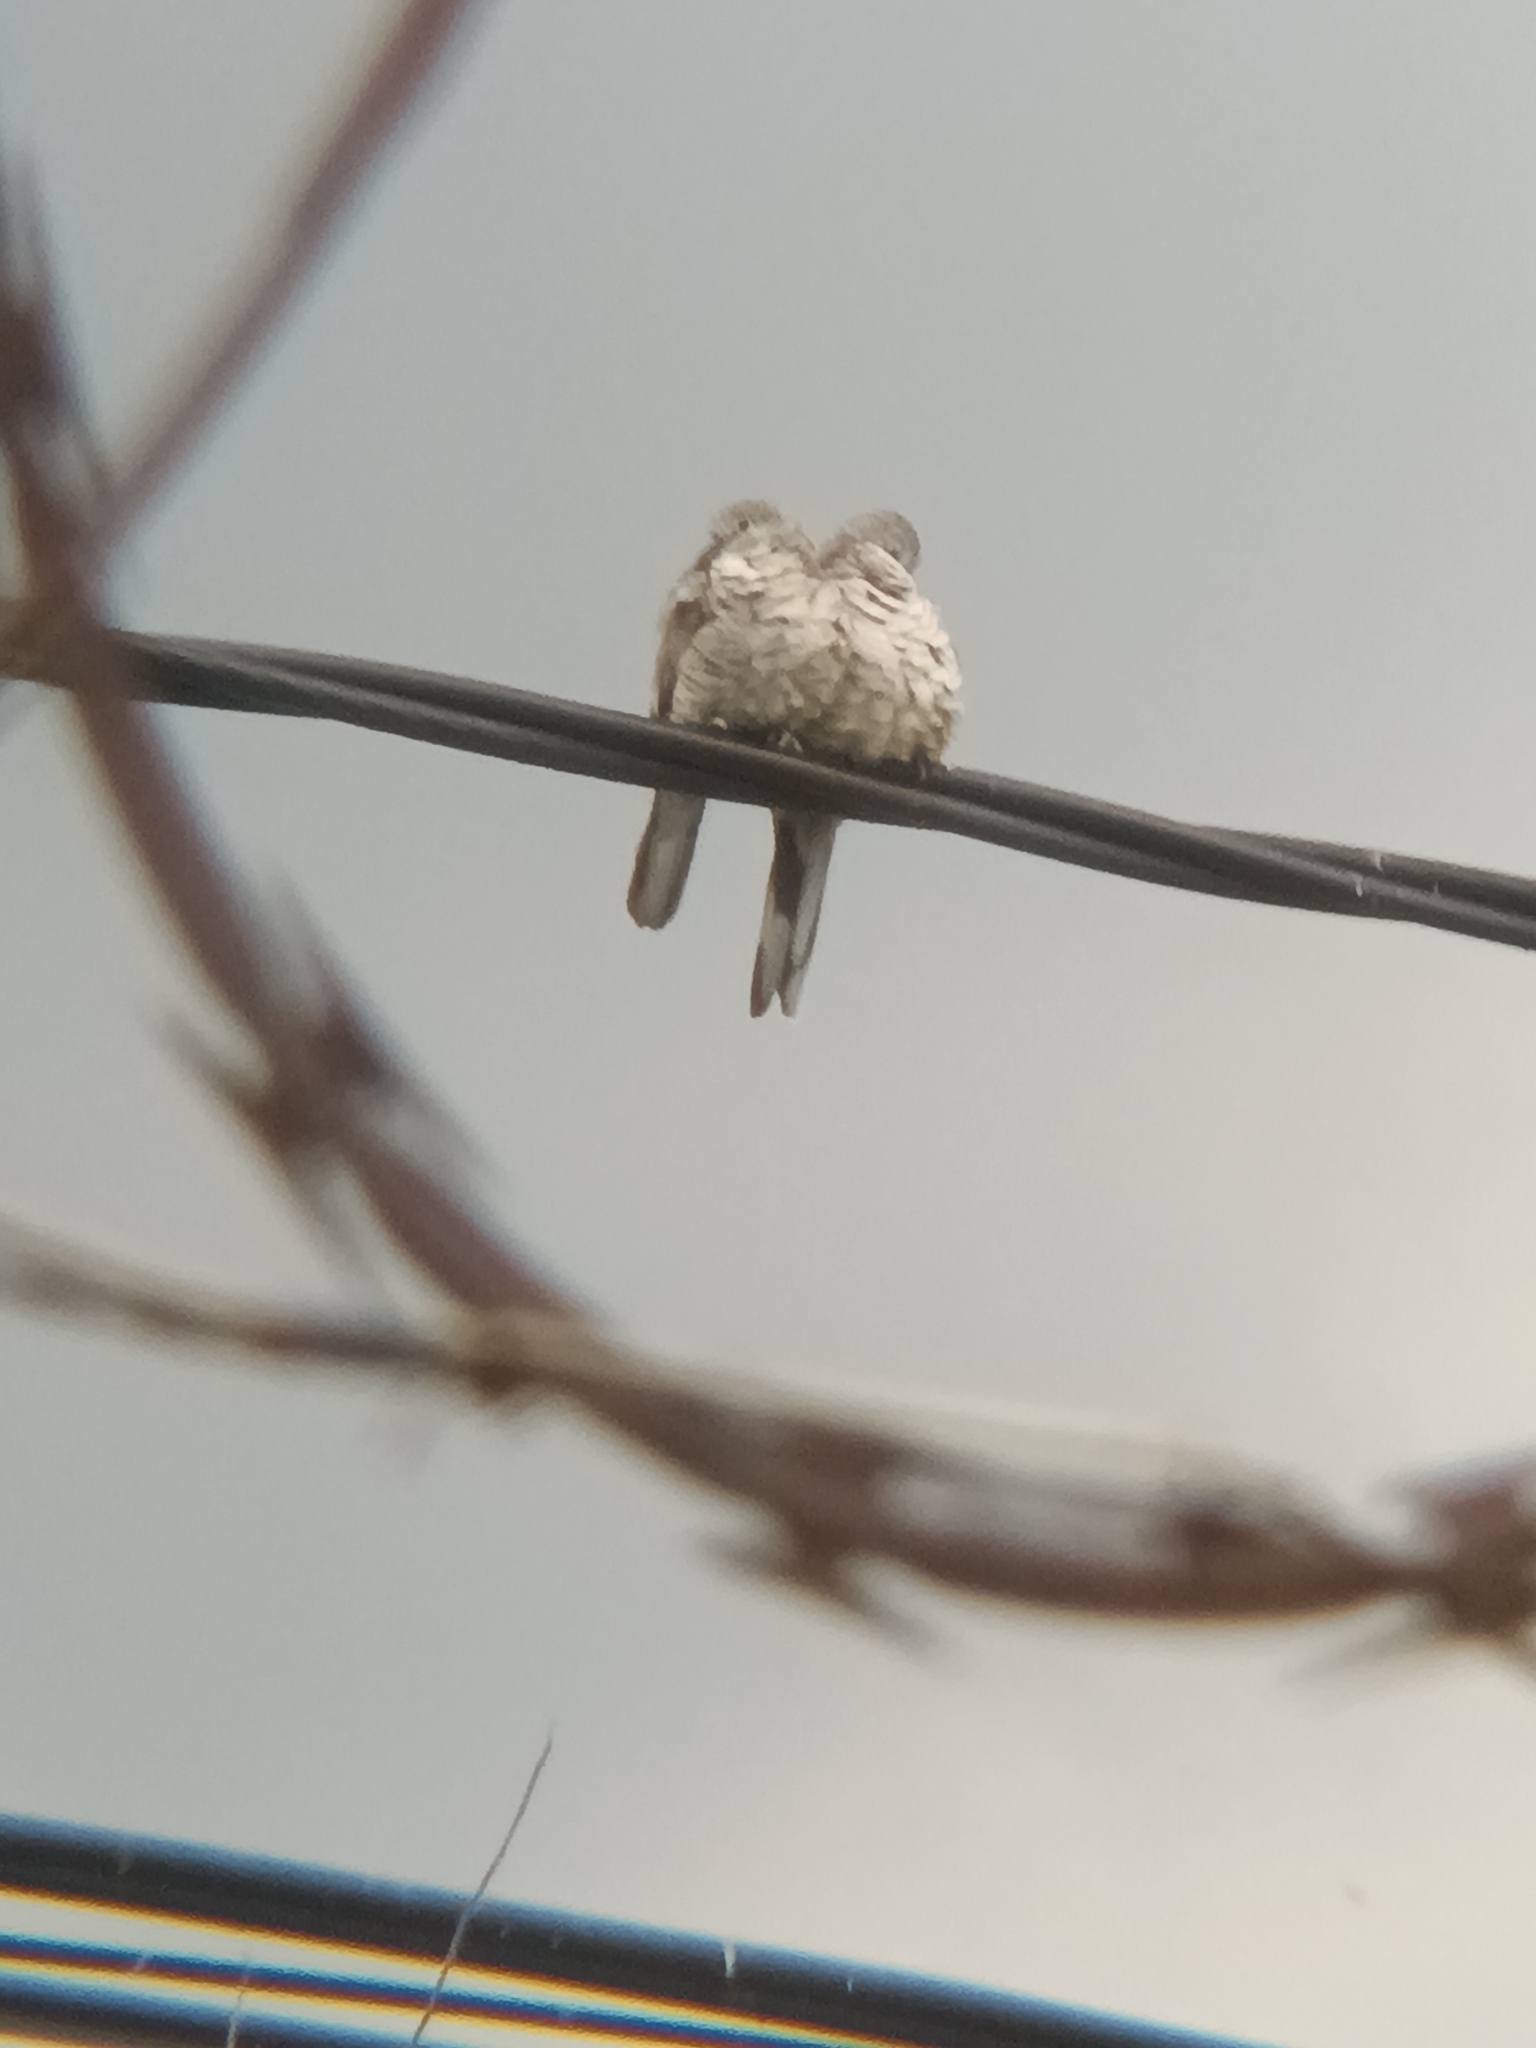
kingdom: Animalia
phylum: Chordata
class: Aves
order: Columbiformes
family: Columbidae
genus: Columbina
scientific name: Columbina inca
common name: Inca dove
